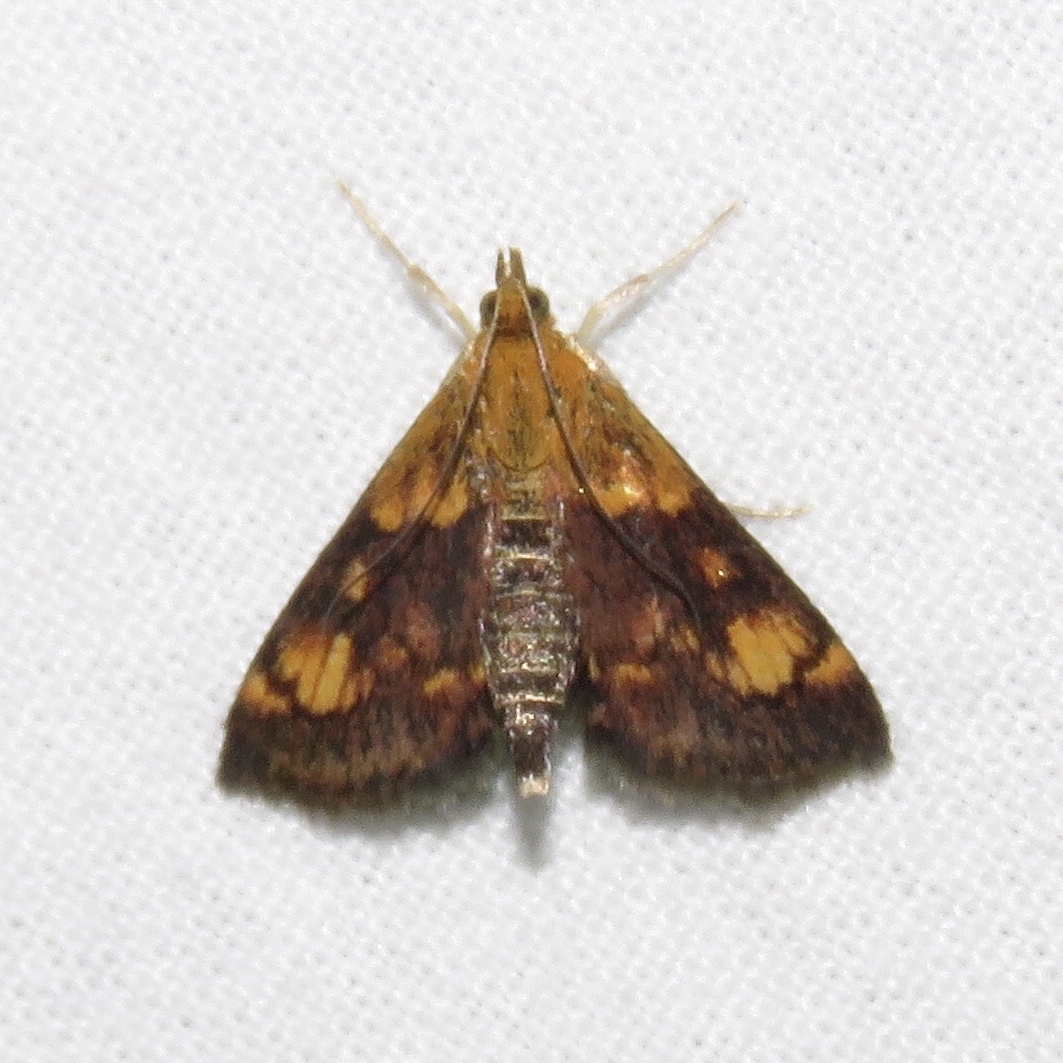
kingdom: Animalia
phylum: Arthropoda
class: Insecta
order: Lepidoptera
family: Crambidae
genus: Pyrausta
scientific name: Pyrausta orphisalis
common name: Orange mint moth
